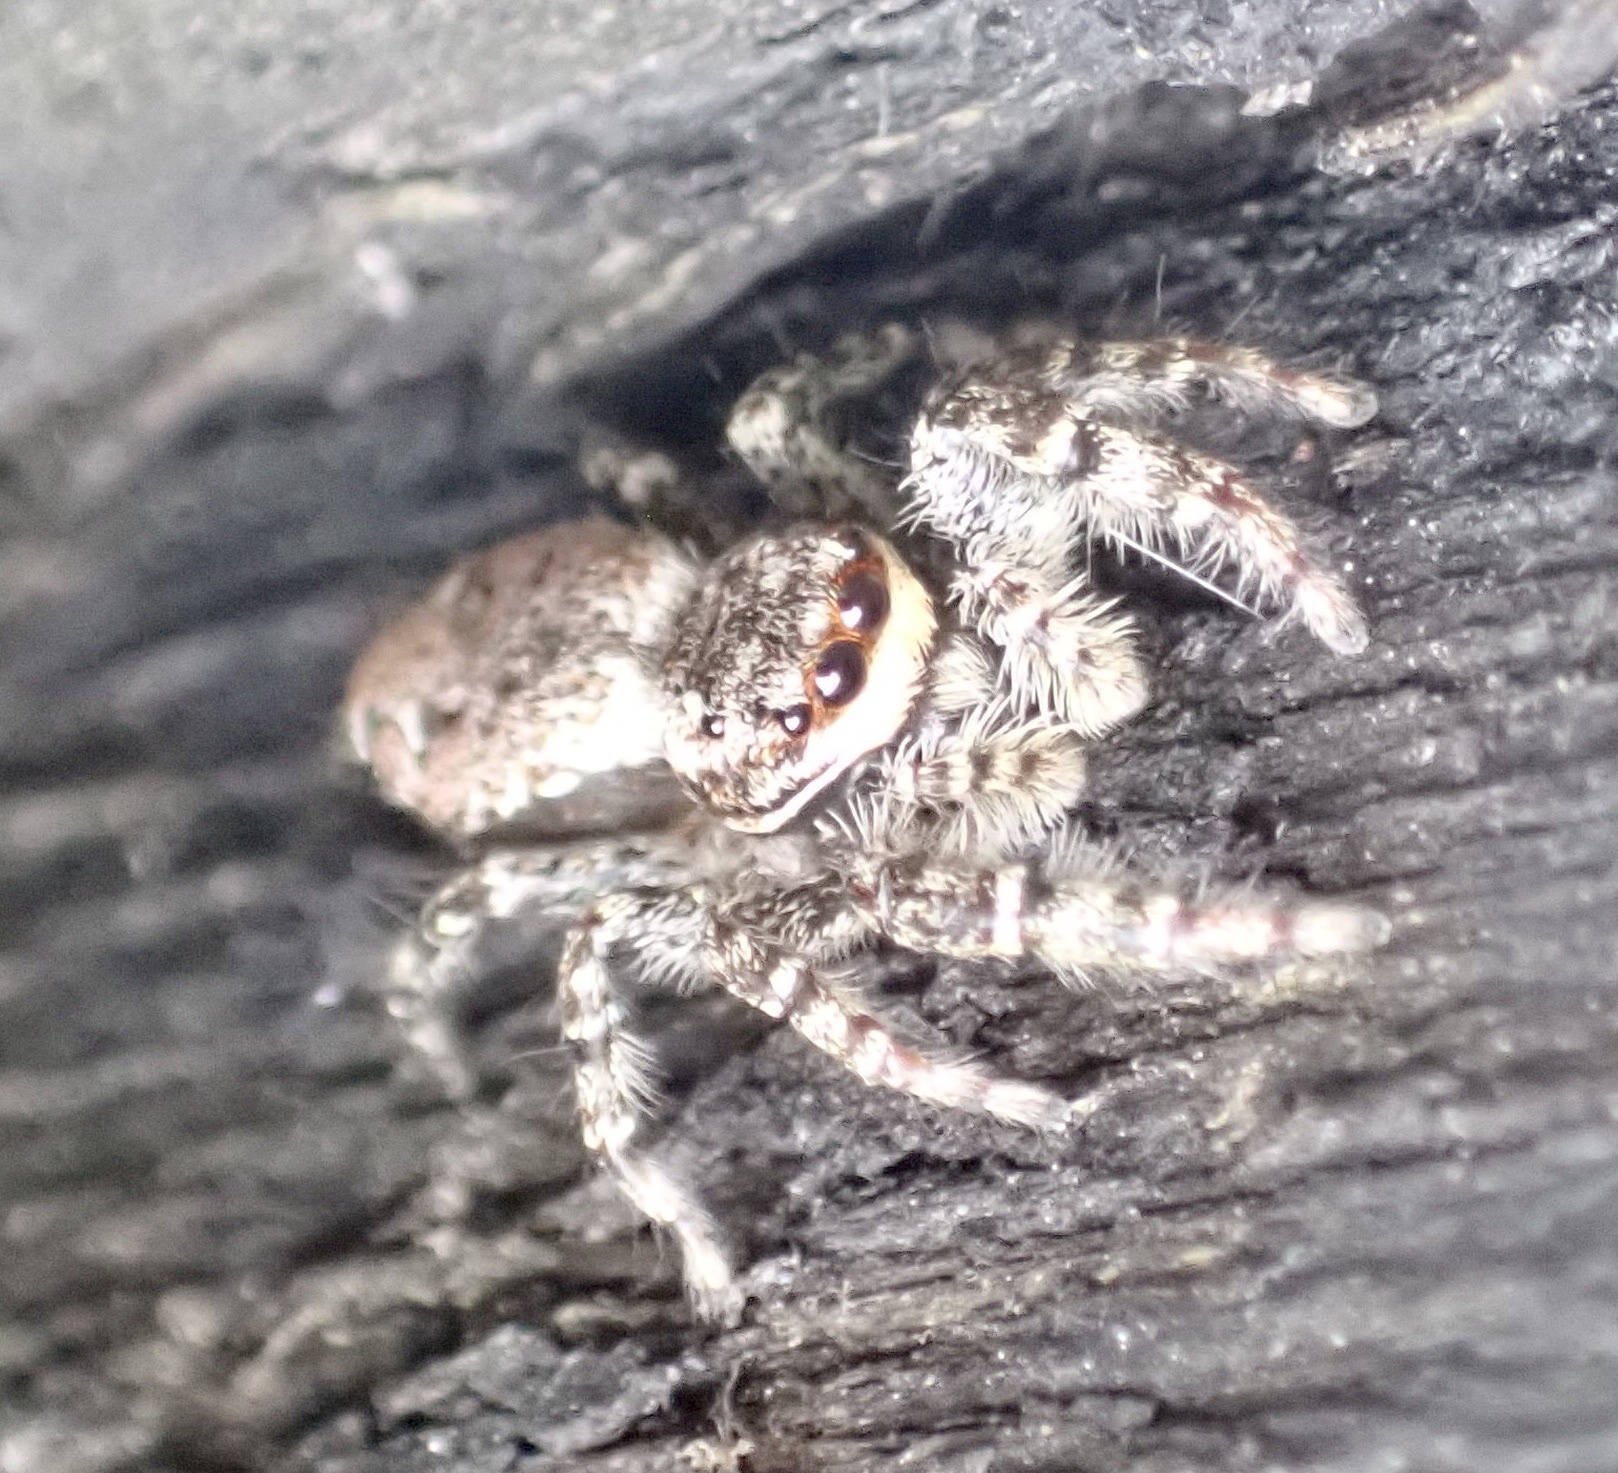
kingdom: Animalia
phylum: Arthropoda
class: Arachnida
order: Araneae
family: Salticidae
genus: Marpissa
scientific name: Marpissa muscosa
